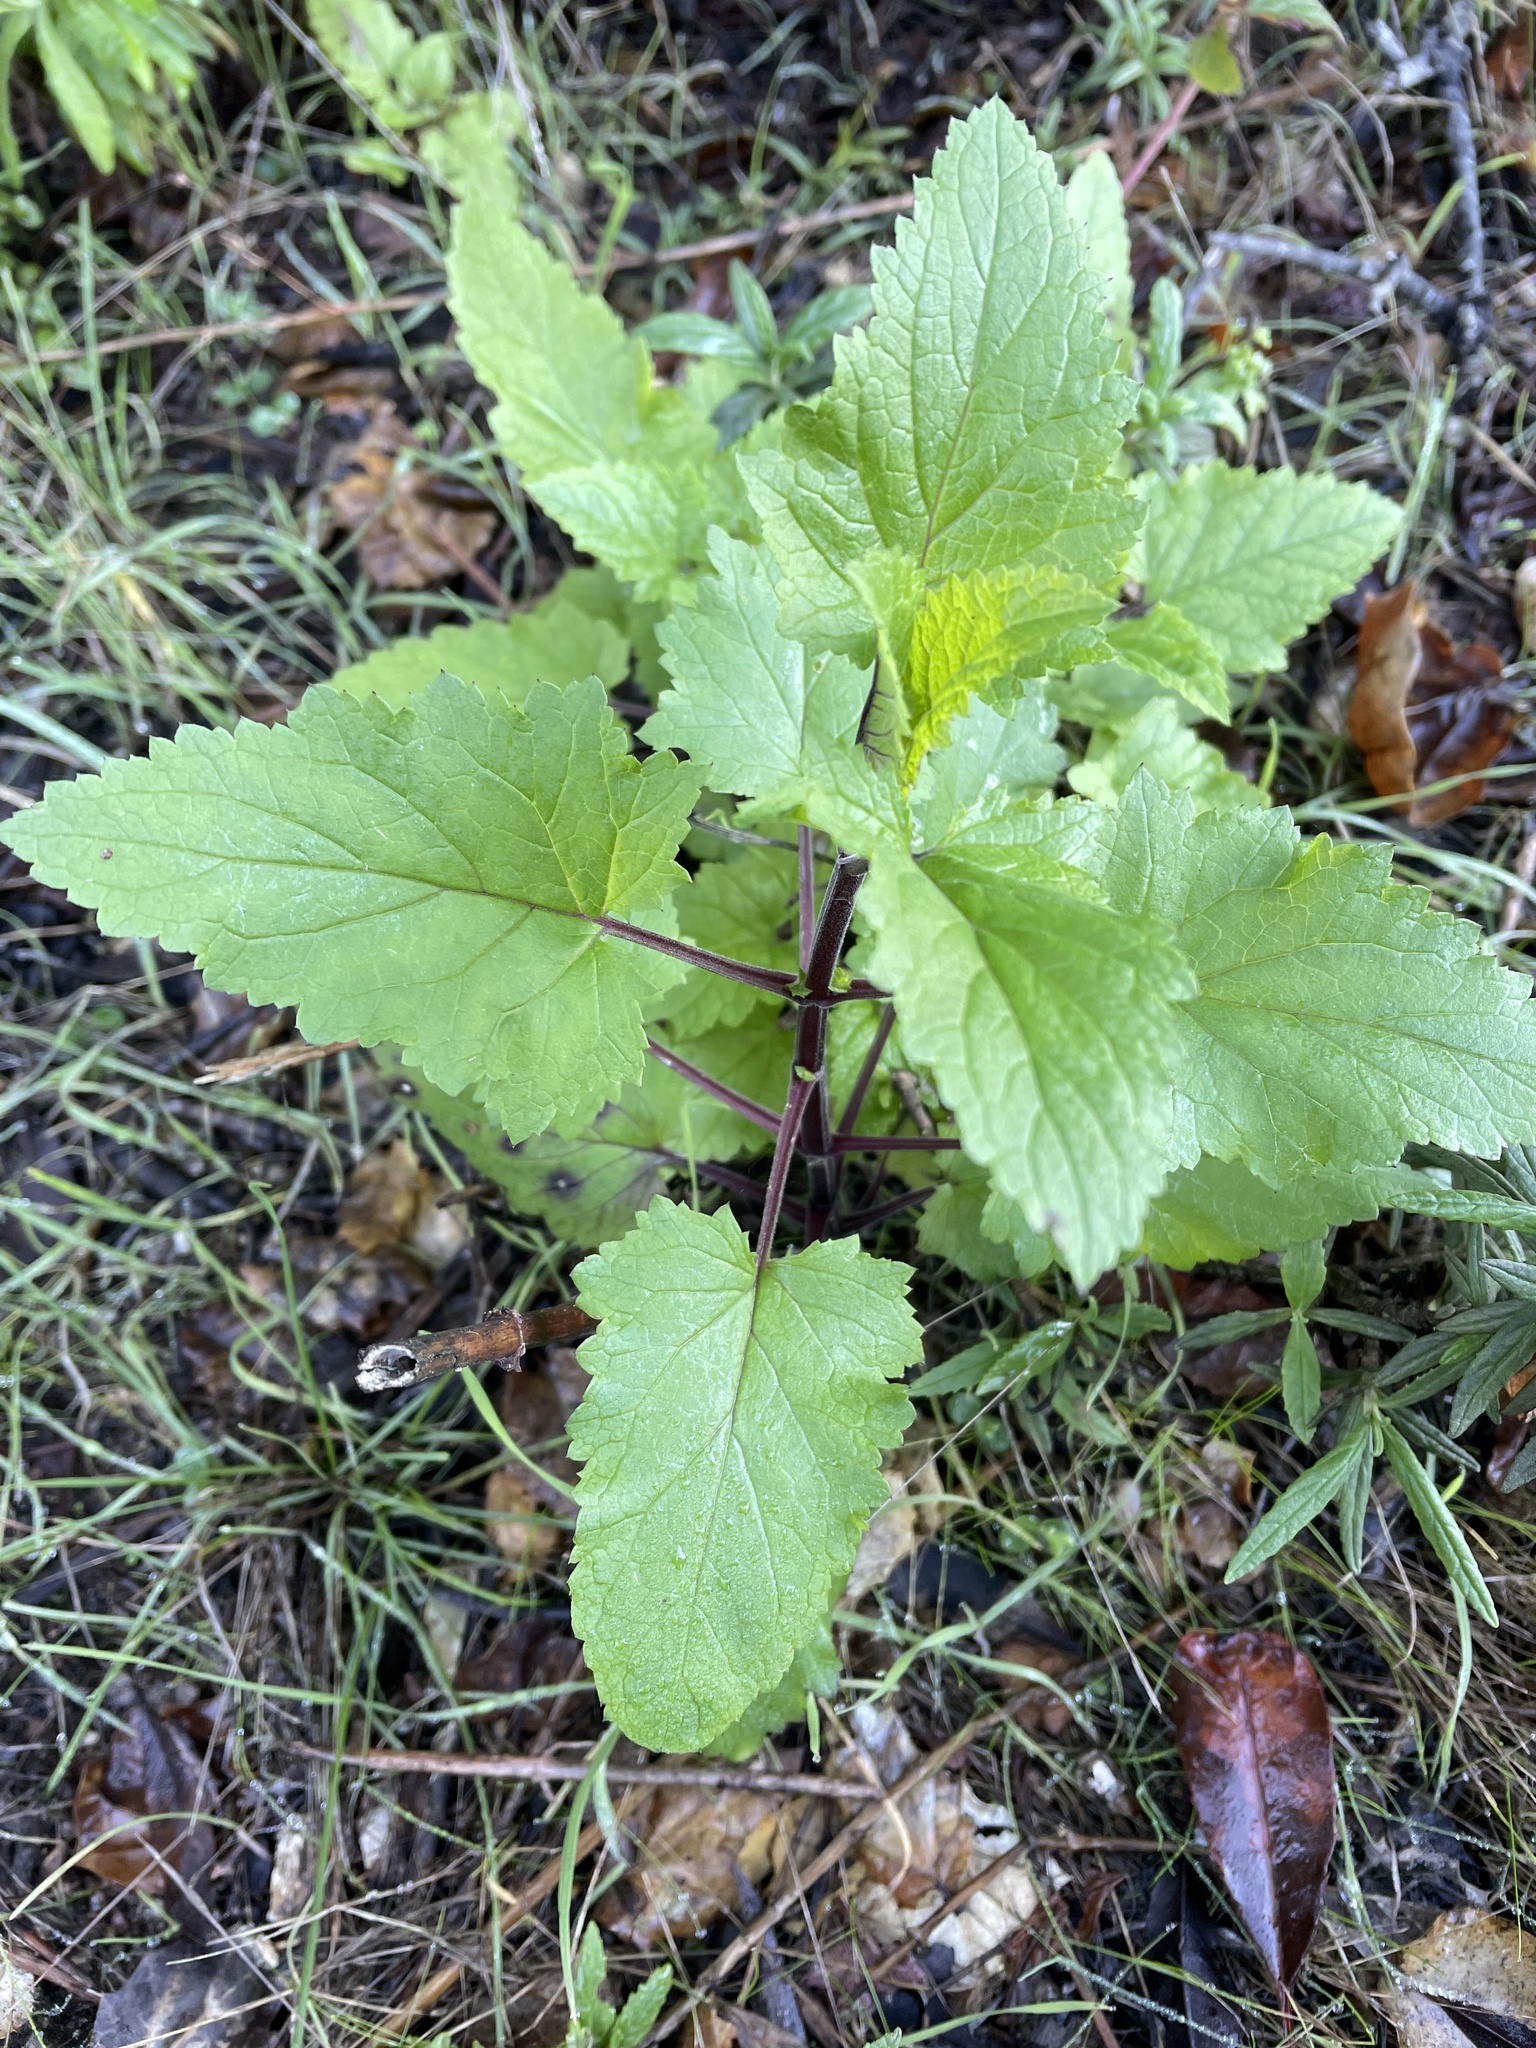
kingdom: Plantae
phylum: Tracheophyta
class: Magnoliopsida
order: Lamiales
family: Scrophulariaceae
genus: Scrophularia
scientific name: Scrophularia californica
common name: California figwort
